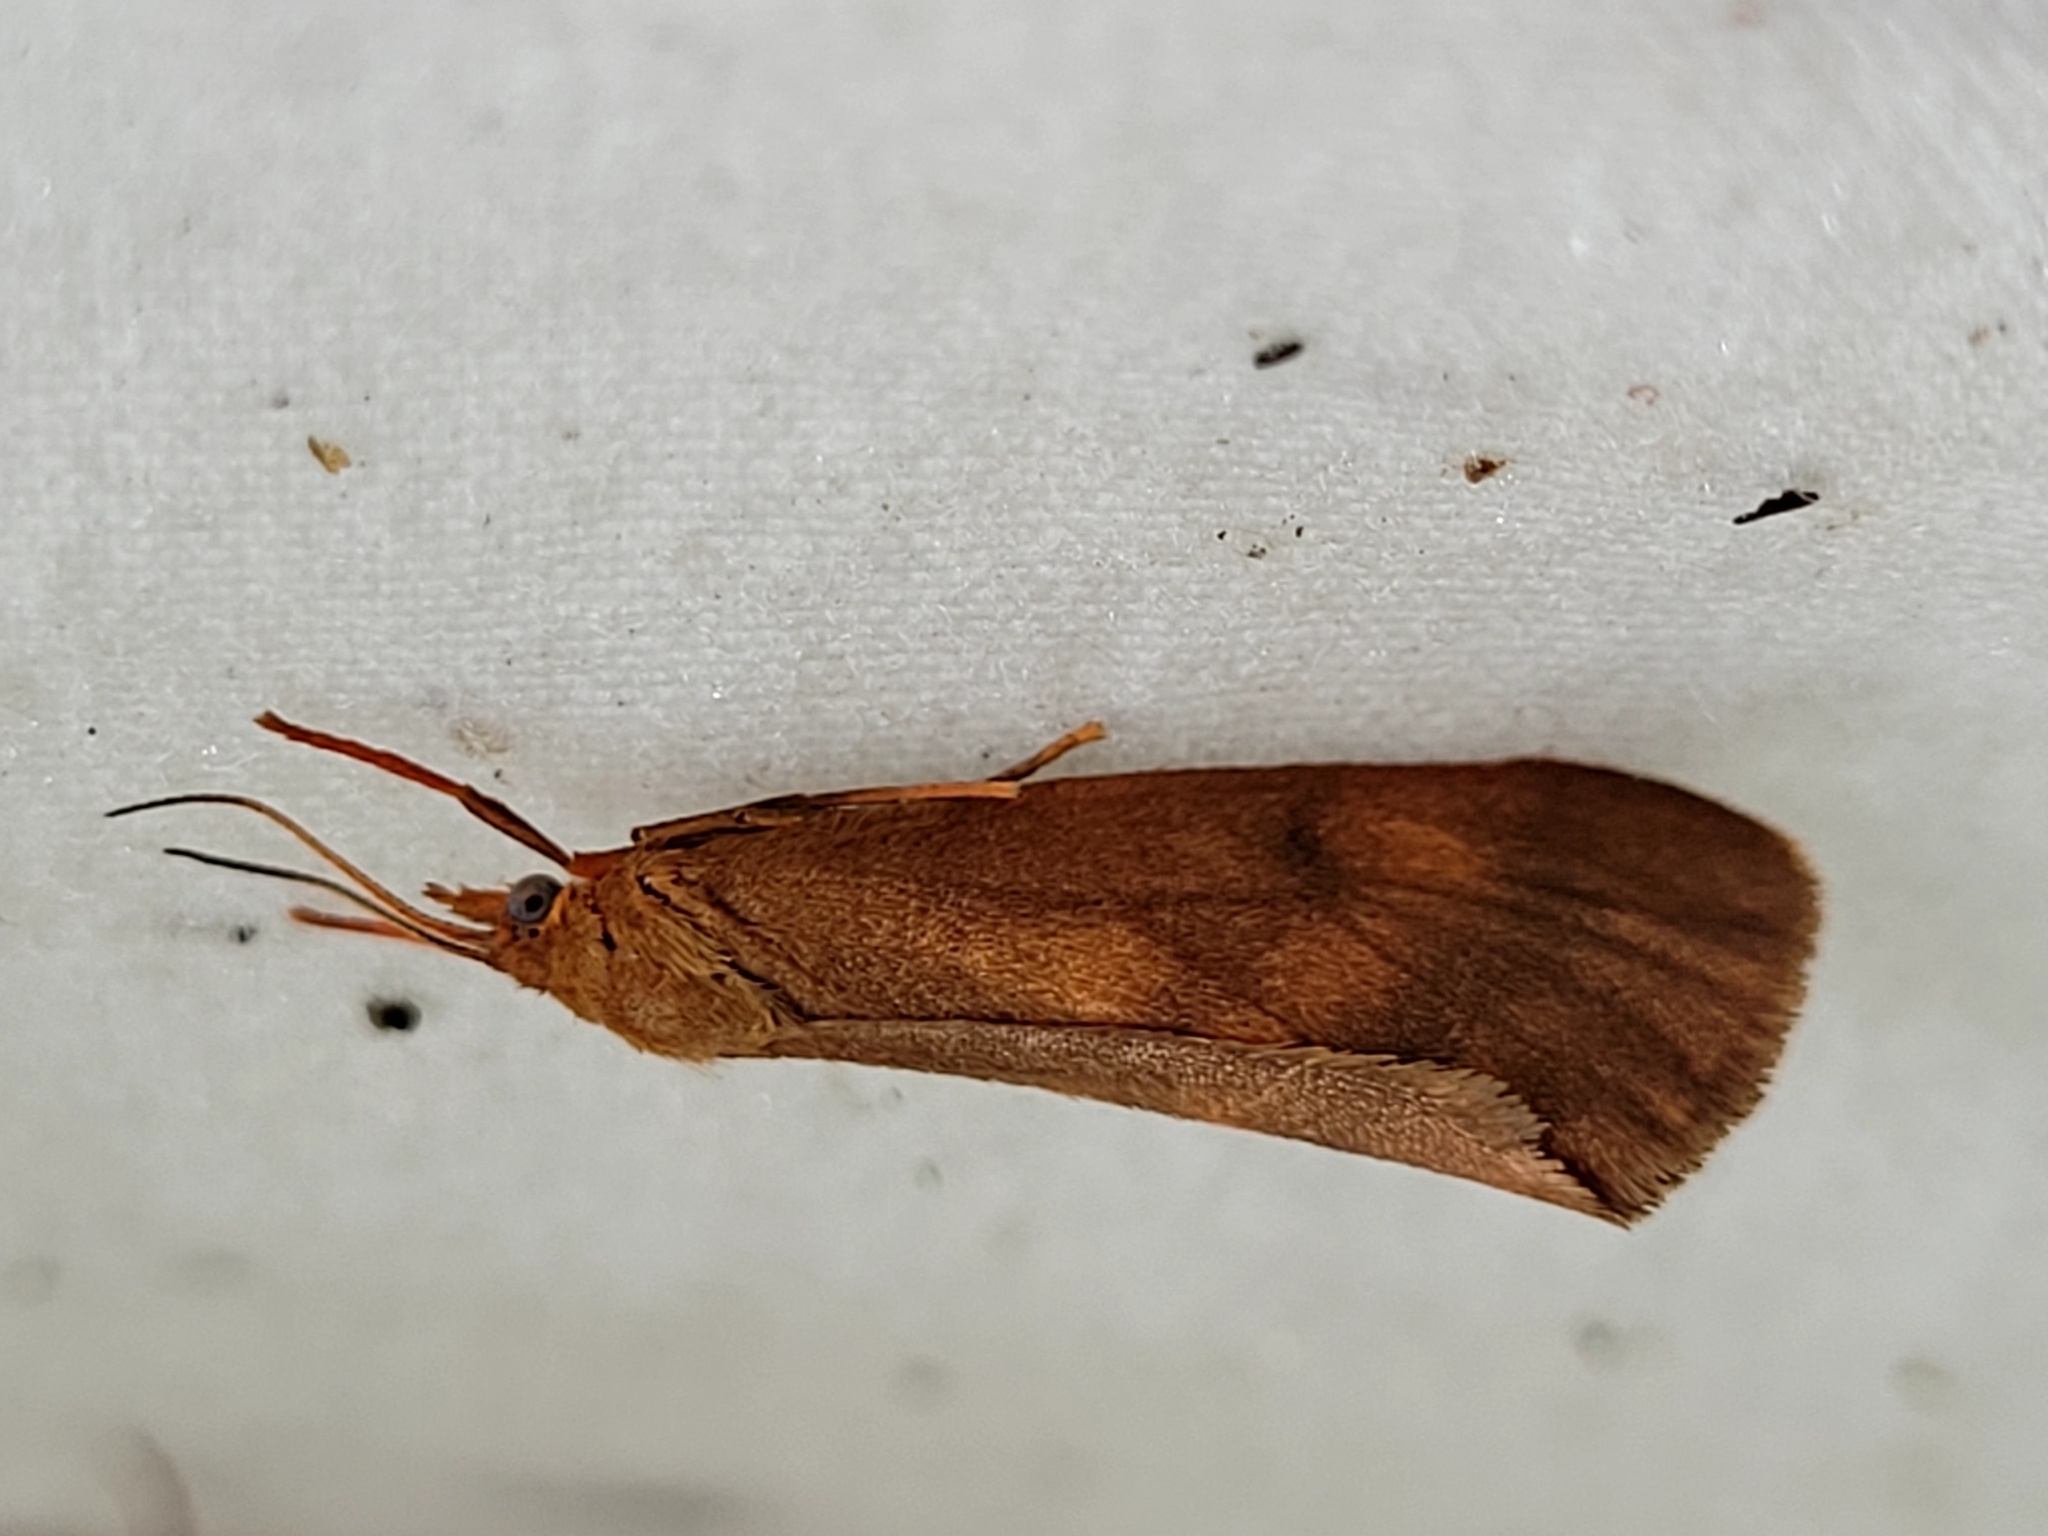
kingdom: Animalia
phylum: Arthropoda
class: Insecta
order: Lepidoptera
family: Erebidae
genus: Virbia
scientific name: Virbia ferruginosa
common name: Rusty virbia moth
